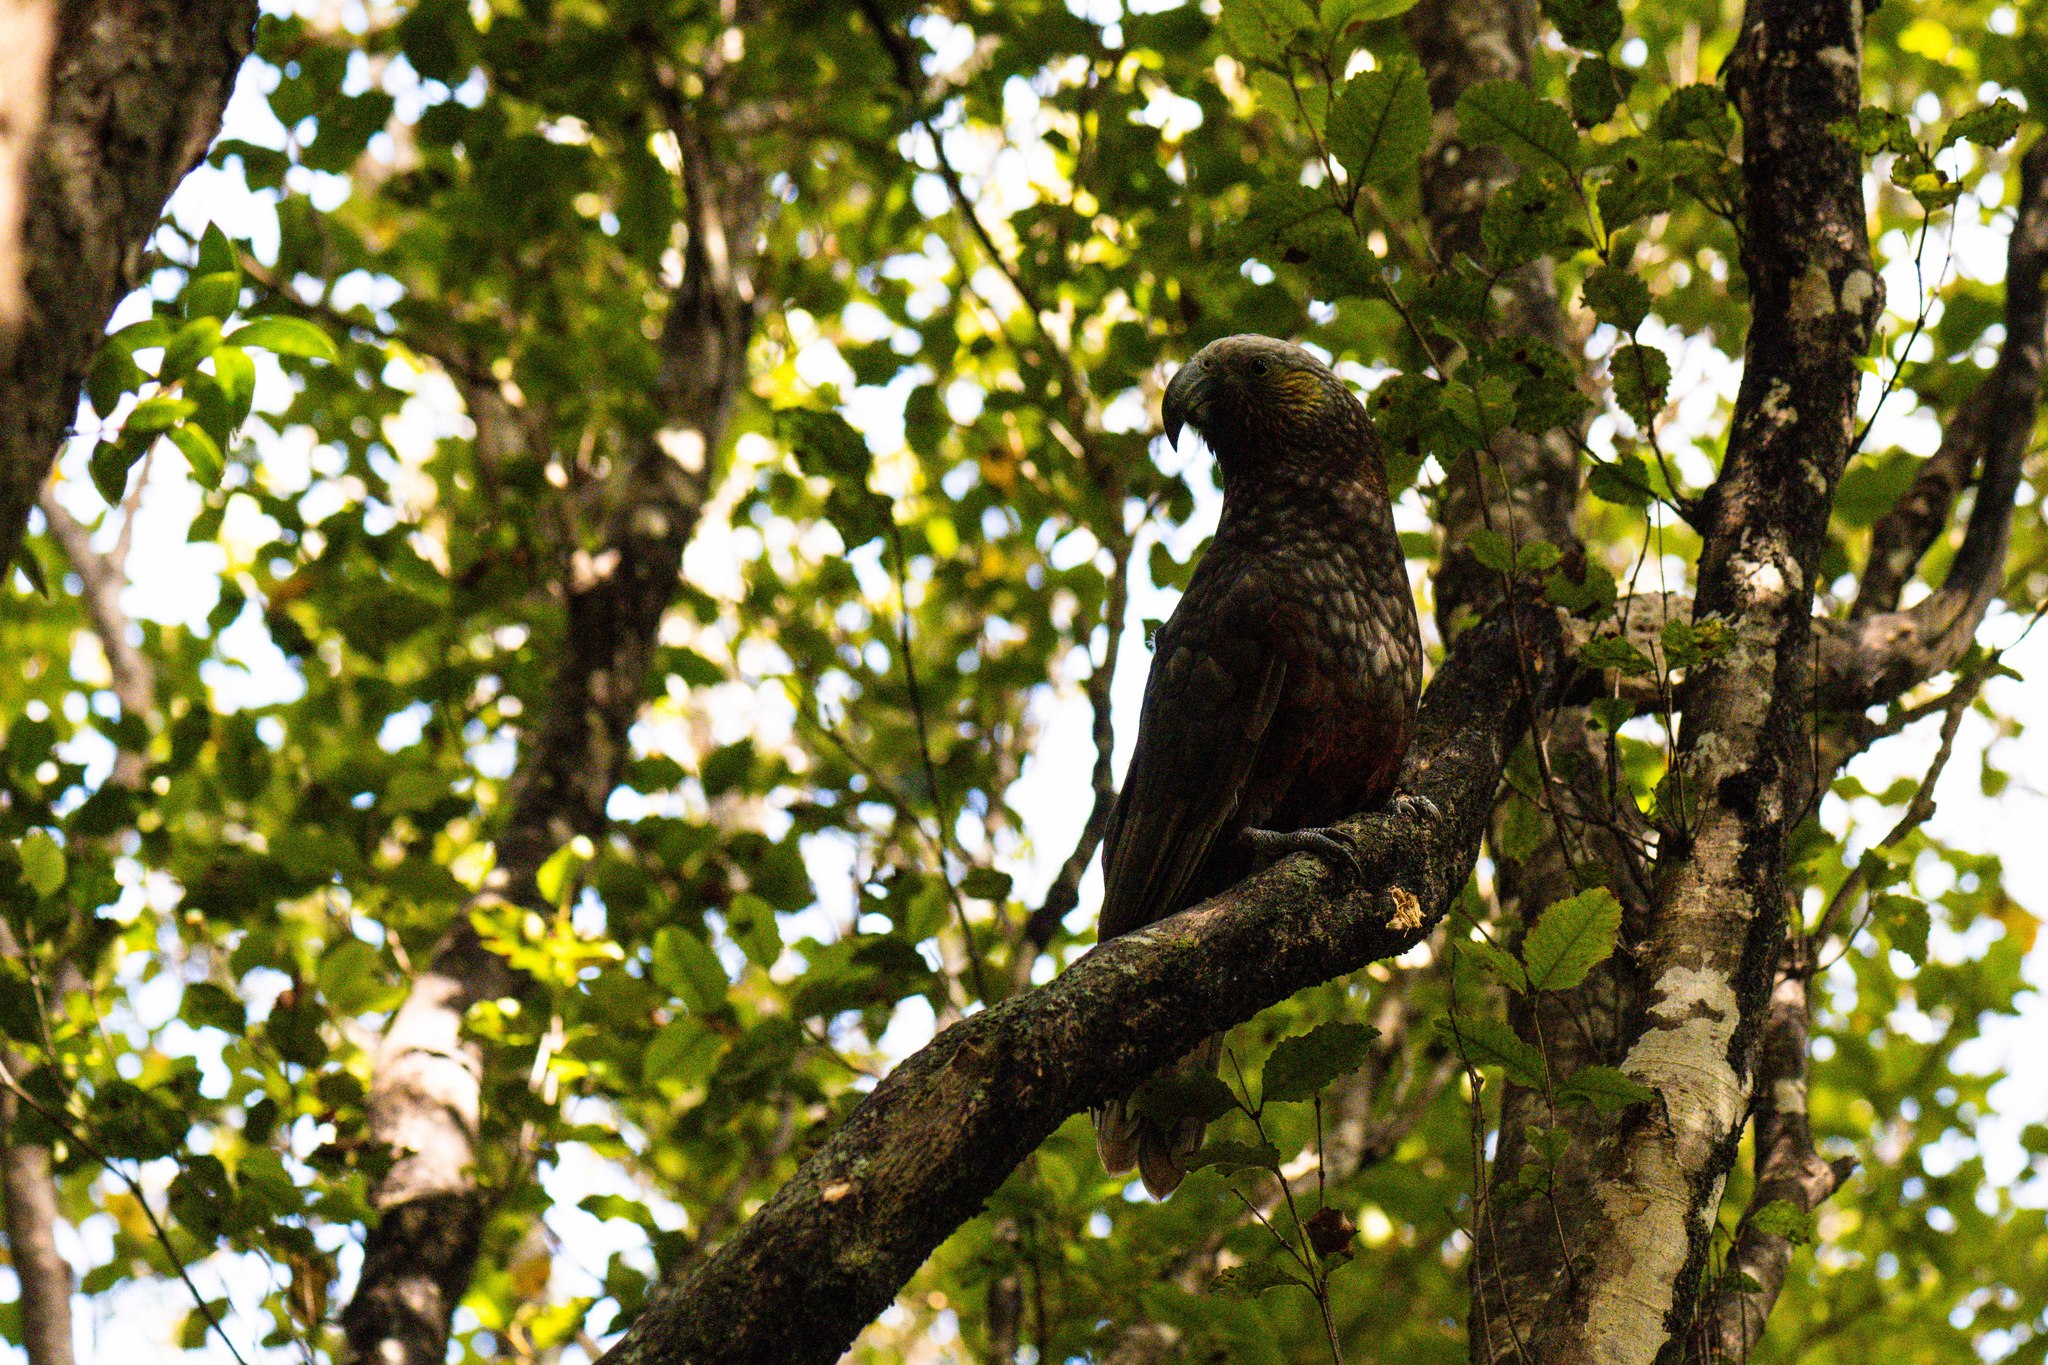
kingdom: Animalia
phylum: Chordata
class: Aves
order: Psittaciformes
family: Psittacidae
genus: Nestor
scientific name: Nestor meridionalis
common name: New zealand kaka
